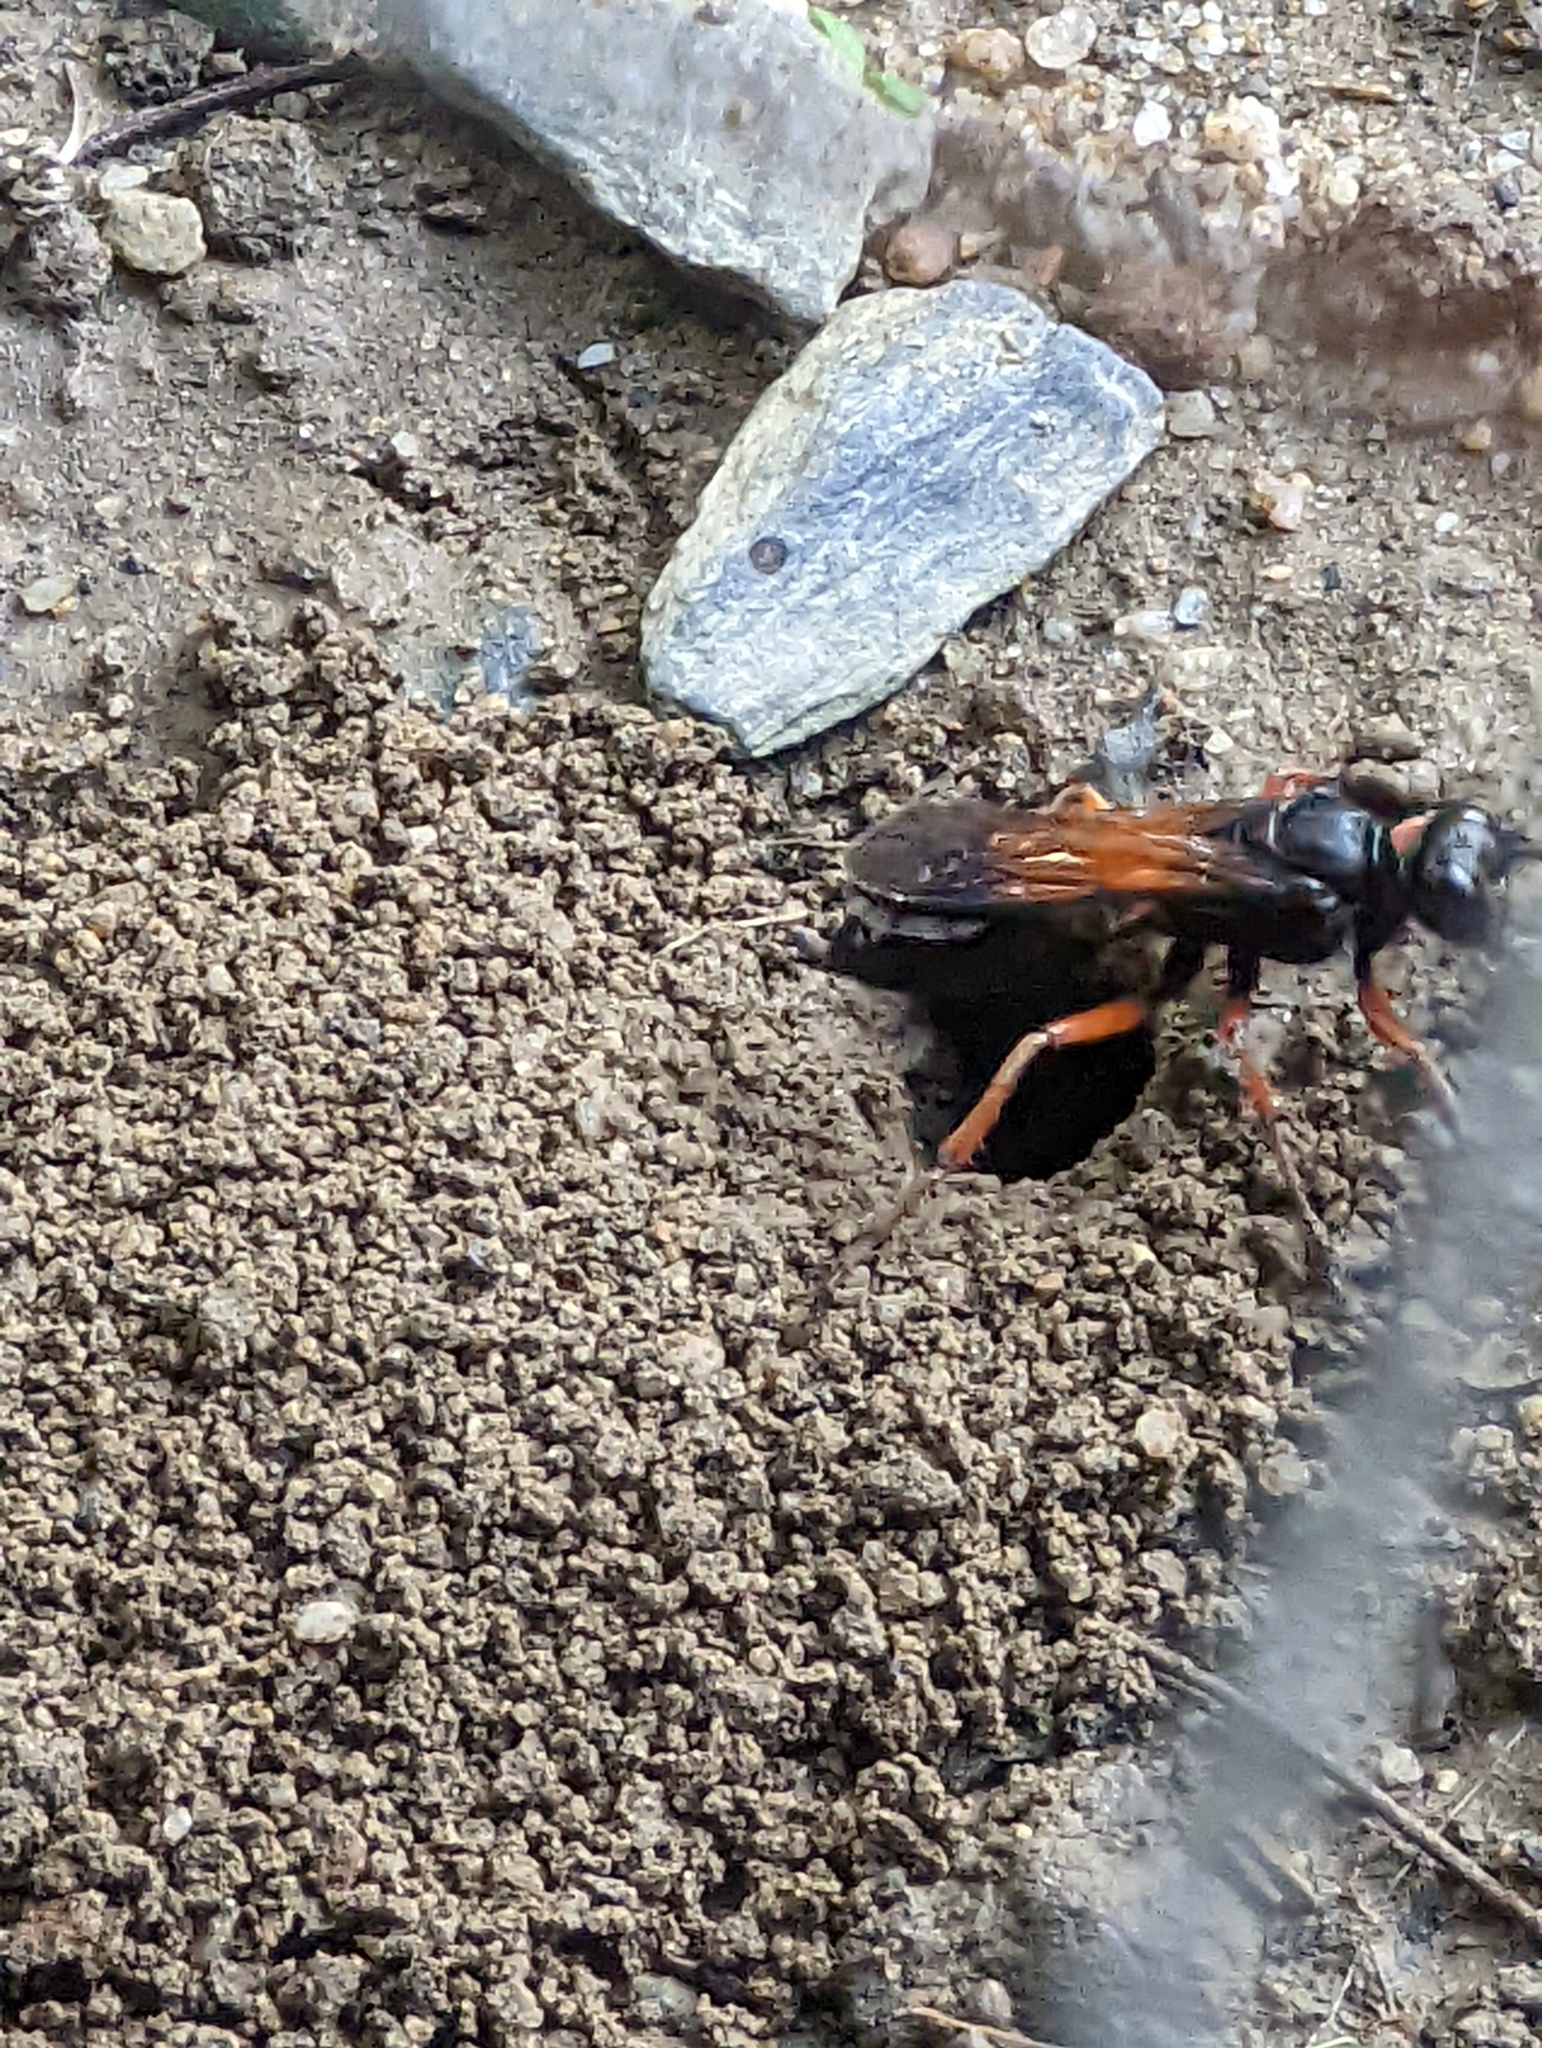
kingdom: Animalia
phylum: Arthropoda
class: Insecta
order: Hymenoptera
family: Sphecidae
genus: Sphex
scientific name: Sphex subtruncatus
